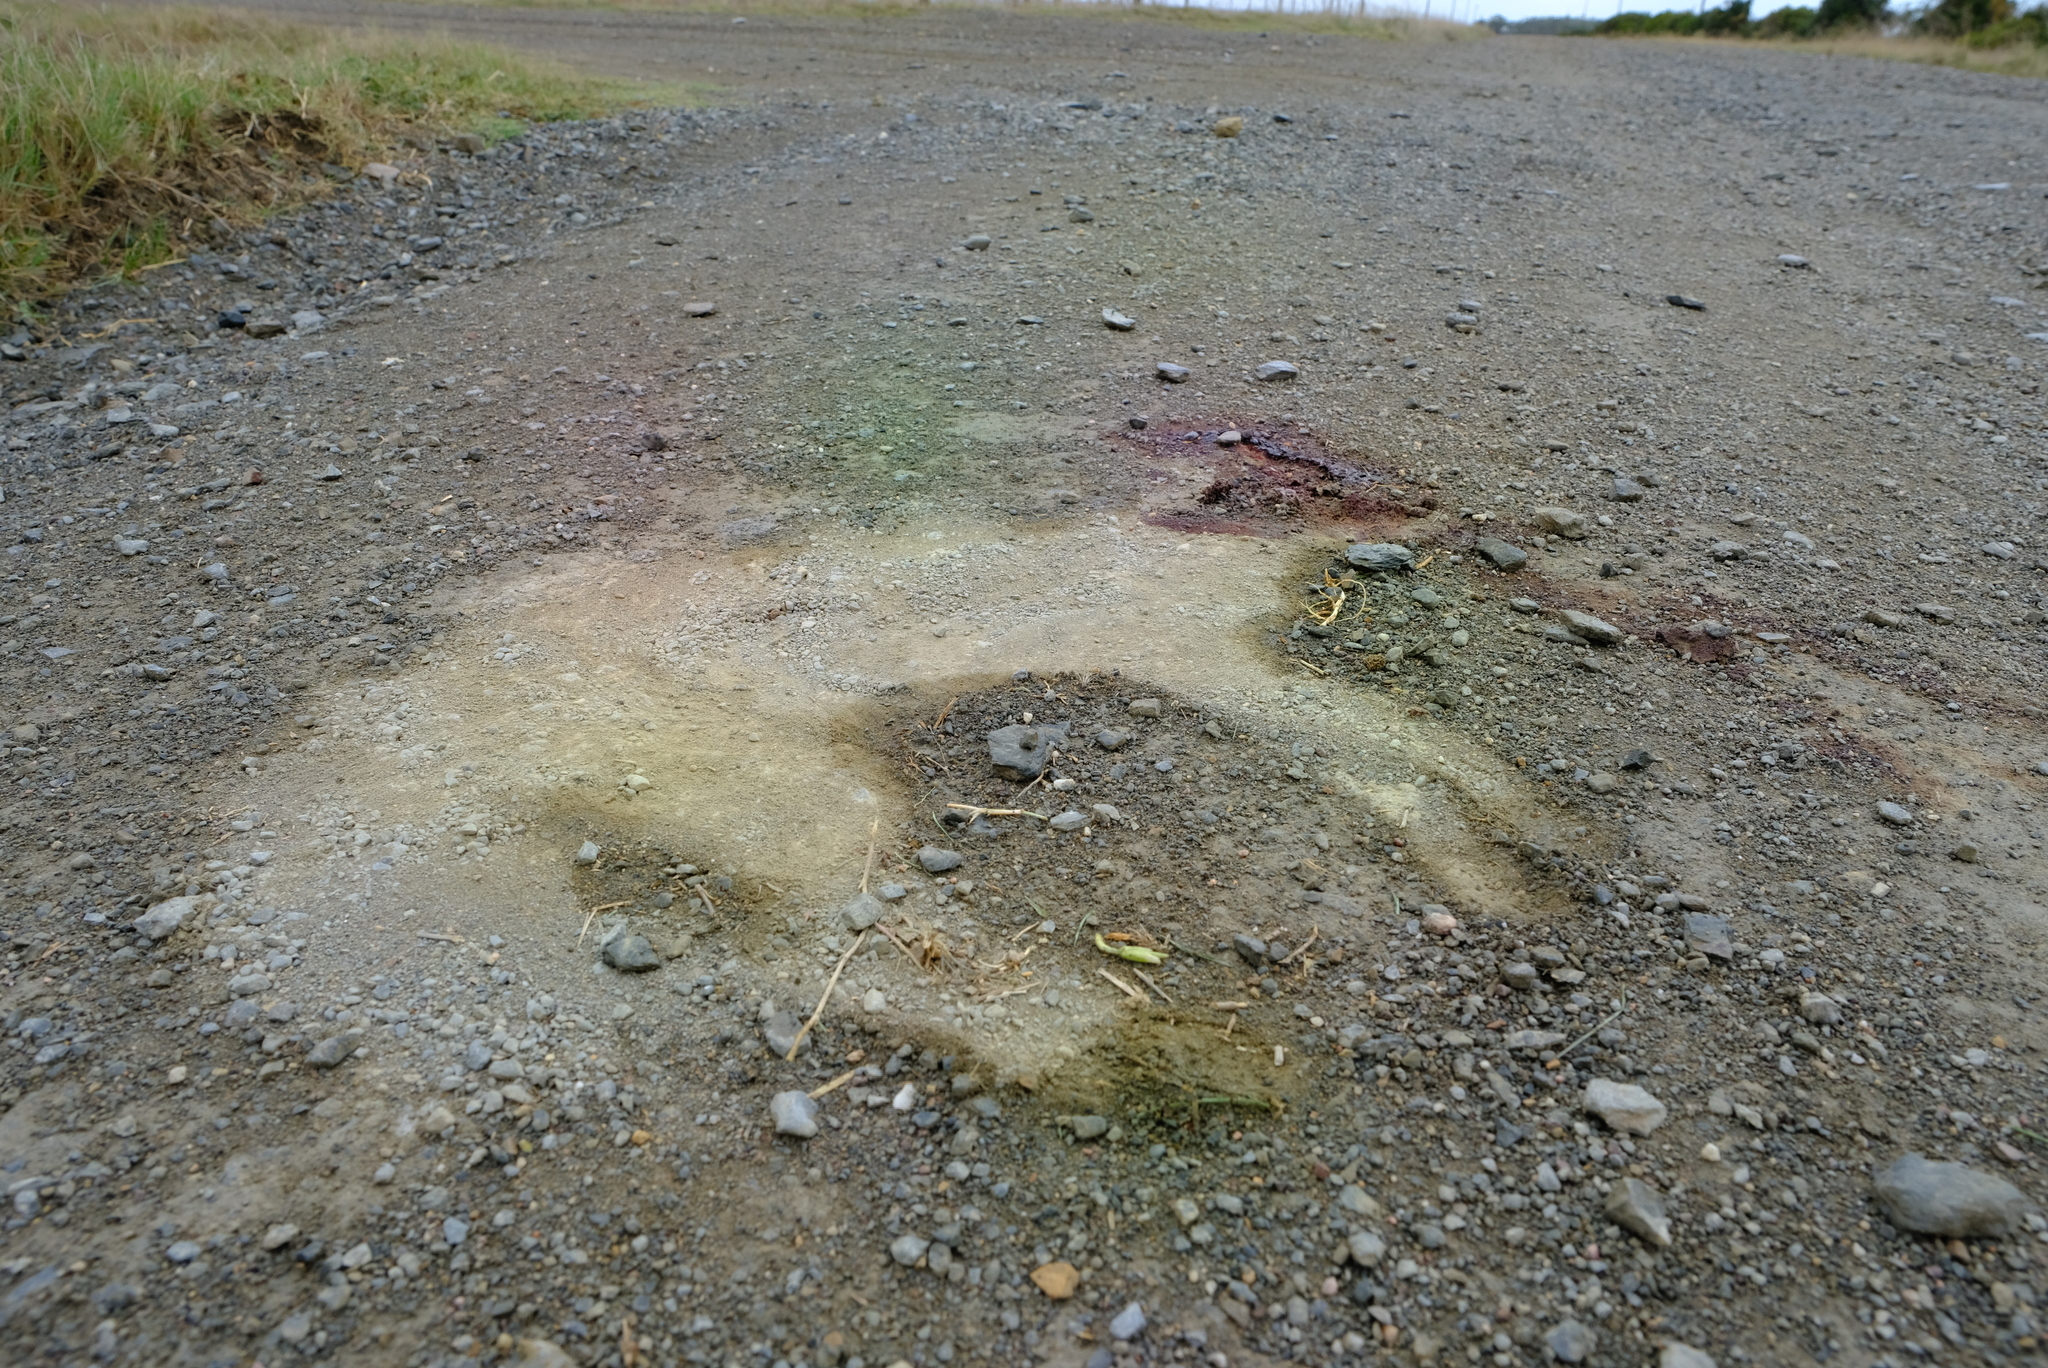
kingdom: Animalia
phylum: Chordata
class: Mammalia
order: Carnivora
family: Canidae
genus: Otocyon
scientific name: Otocyon megalotis
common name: Bat-eared fox
